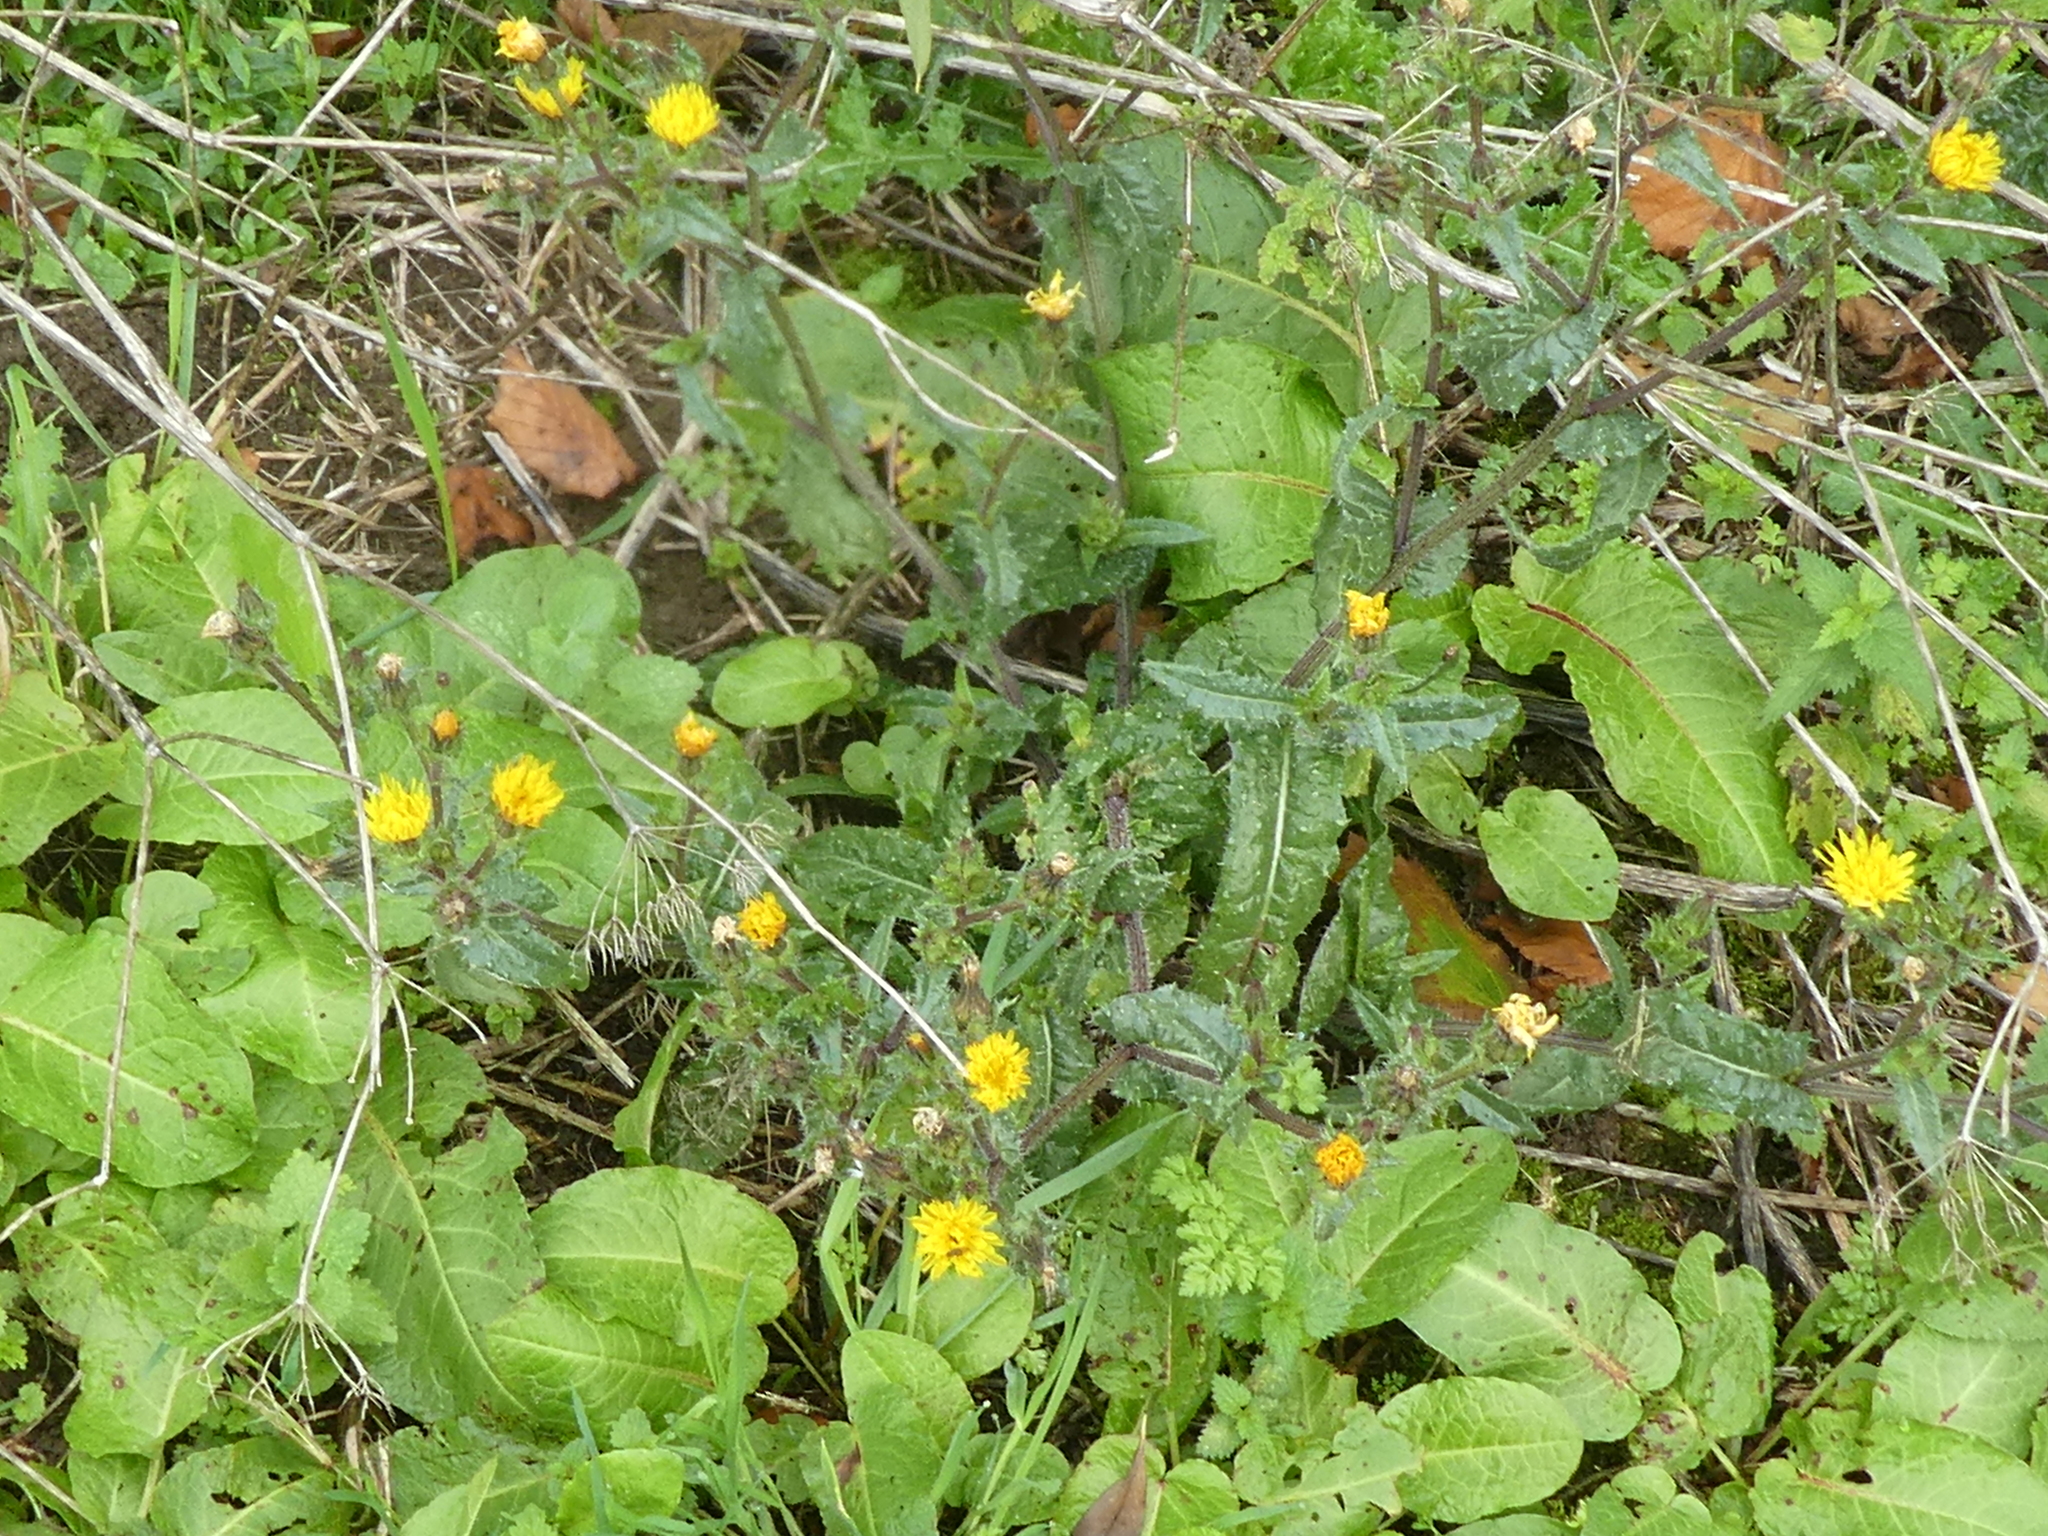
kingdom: Plantae
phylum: Tracheophyta
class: Magnoliopsida
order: Asterales
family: Asteraceae
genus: Helminthotheca
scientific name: Helminthotheca echioides
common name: Ox-tongue
